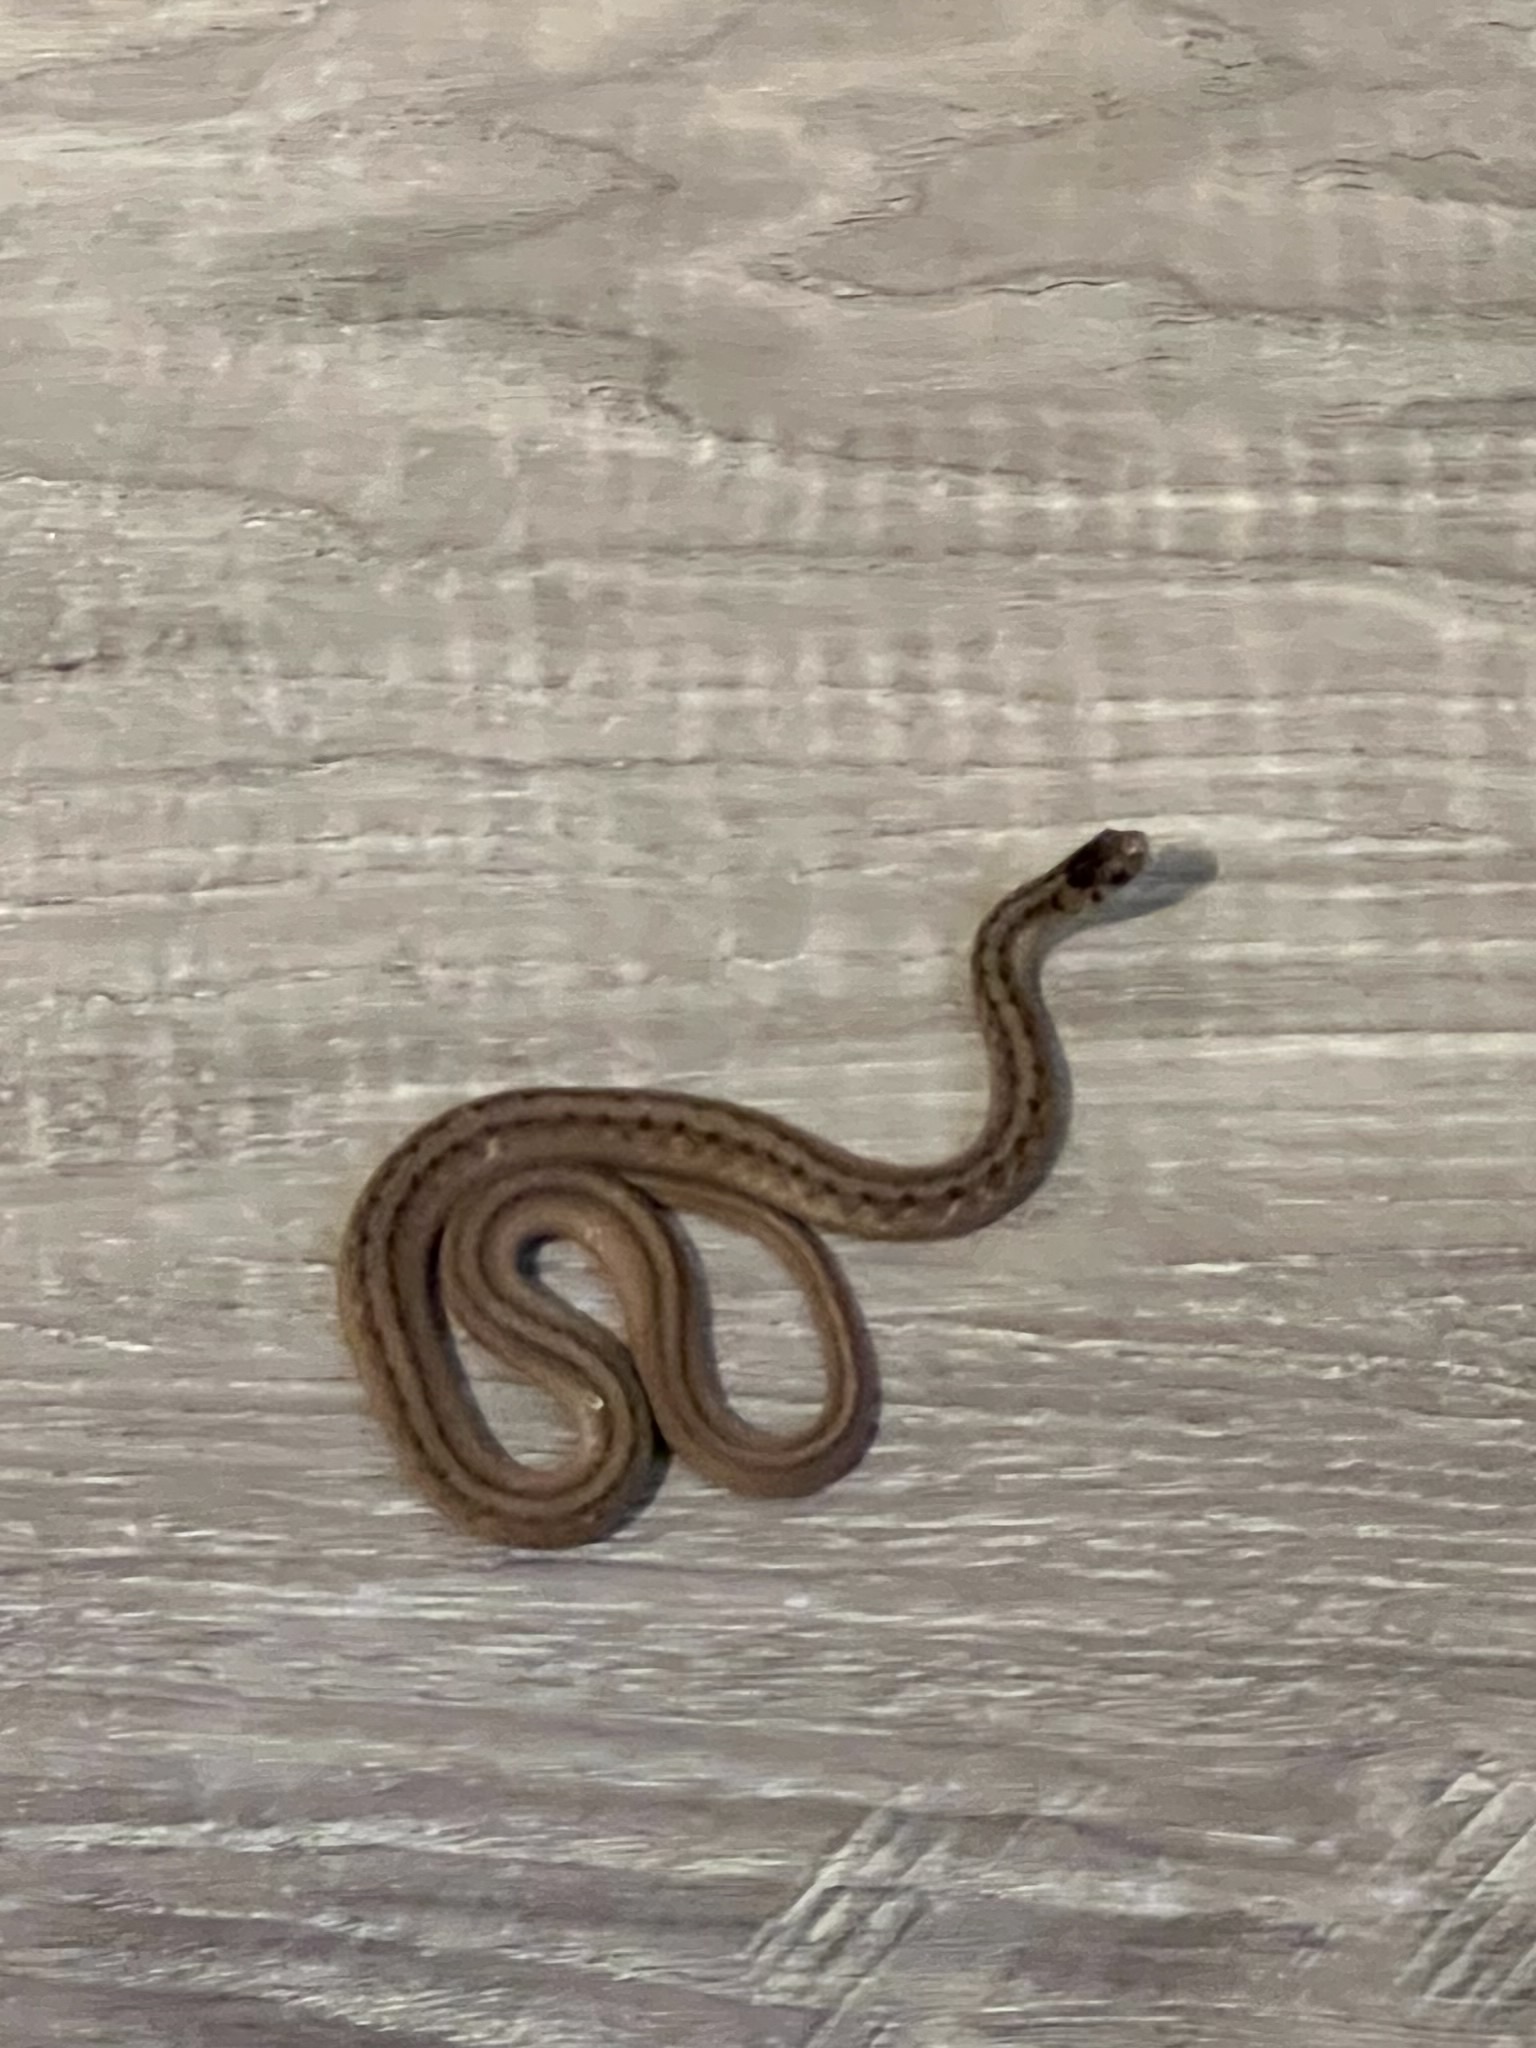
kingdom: Animalia
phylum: Chordata
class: Squamata
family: Colubridae
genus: Storeria
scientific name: Storeria dekayi
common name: (dekay’s) brown snake
